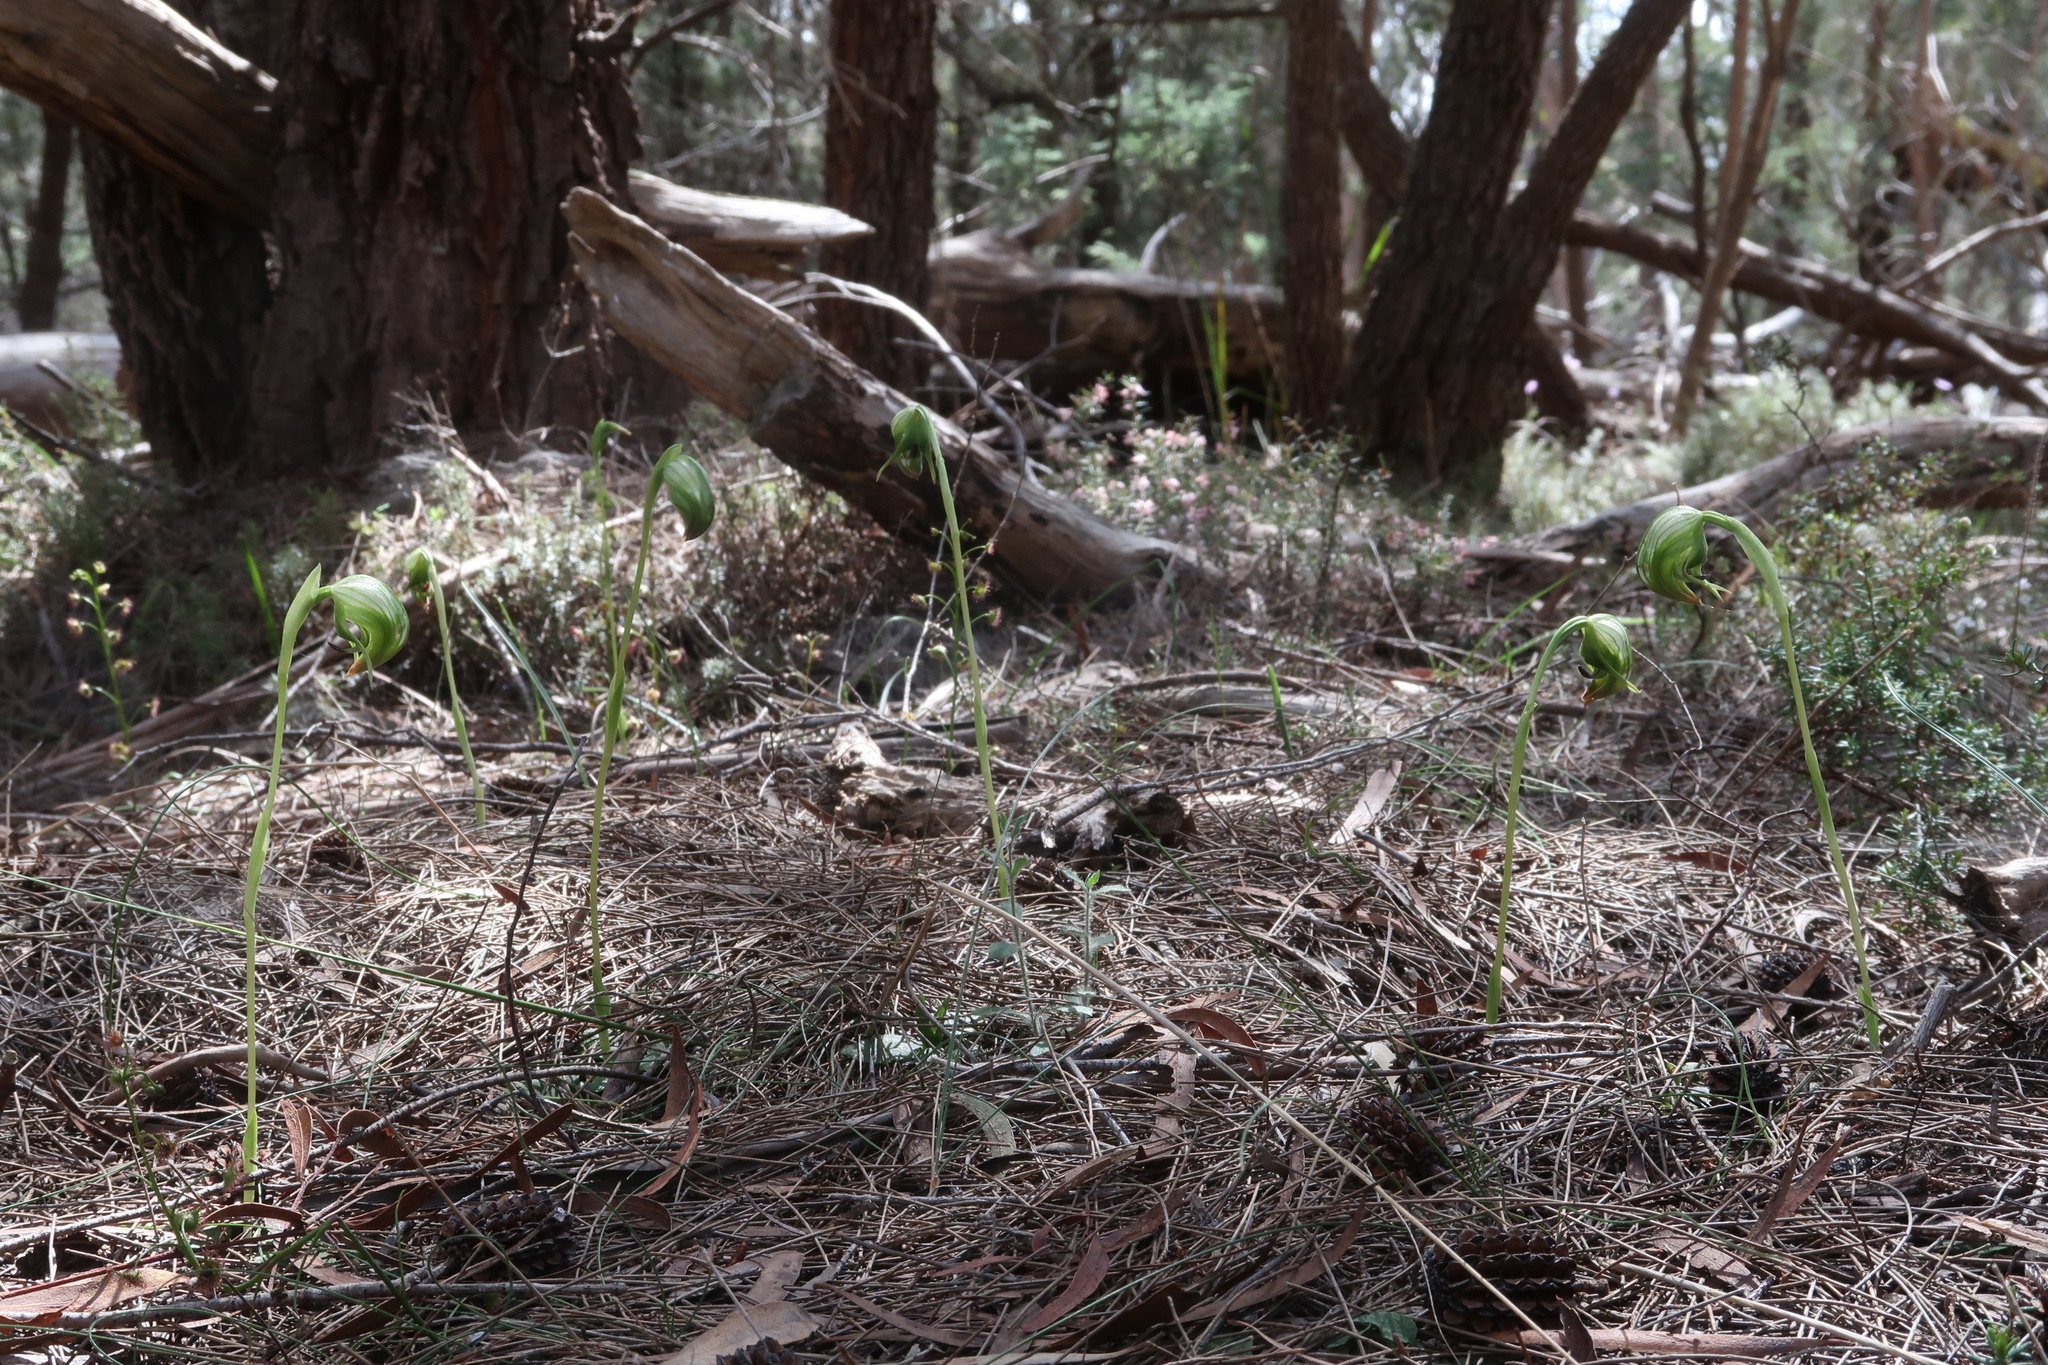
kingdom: Plantae
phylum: Tracheophyta
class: Liliopsida
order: Asparagales
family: Orchidaceae
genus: Pterostylis
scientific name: Pterostylis nutans
